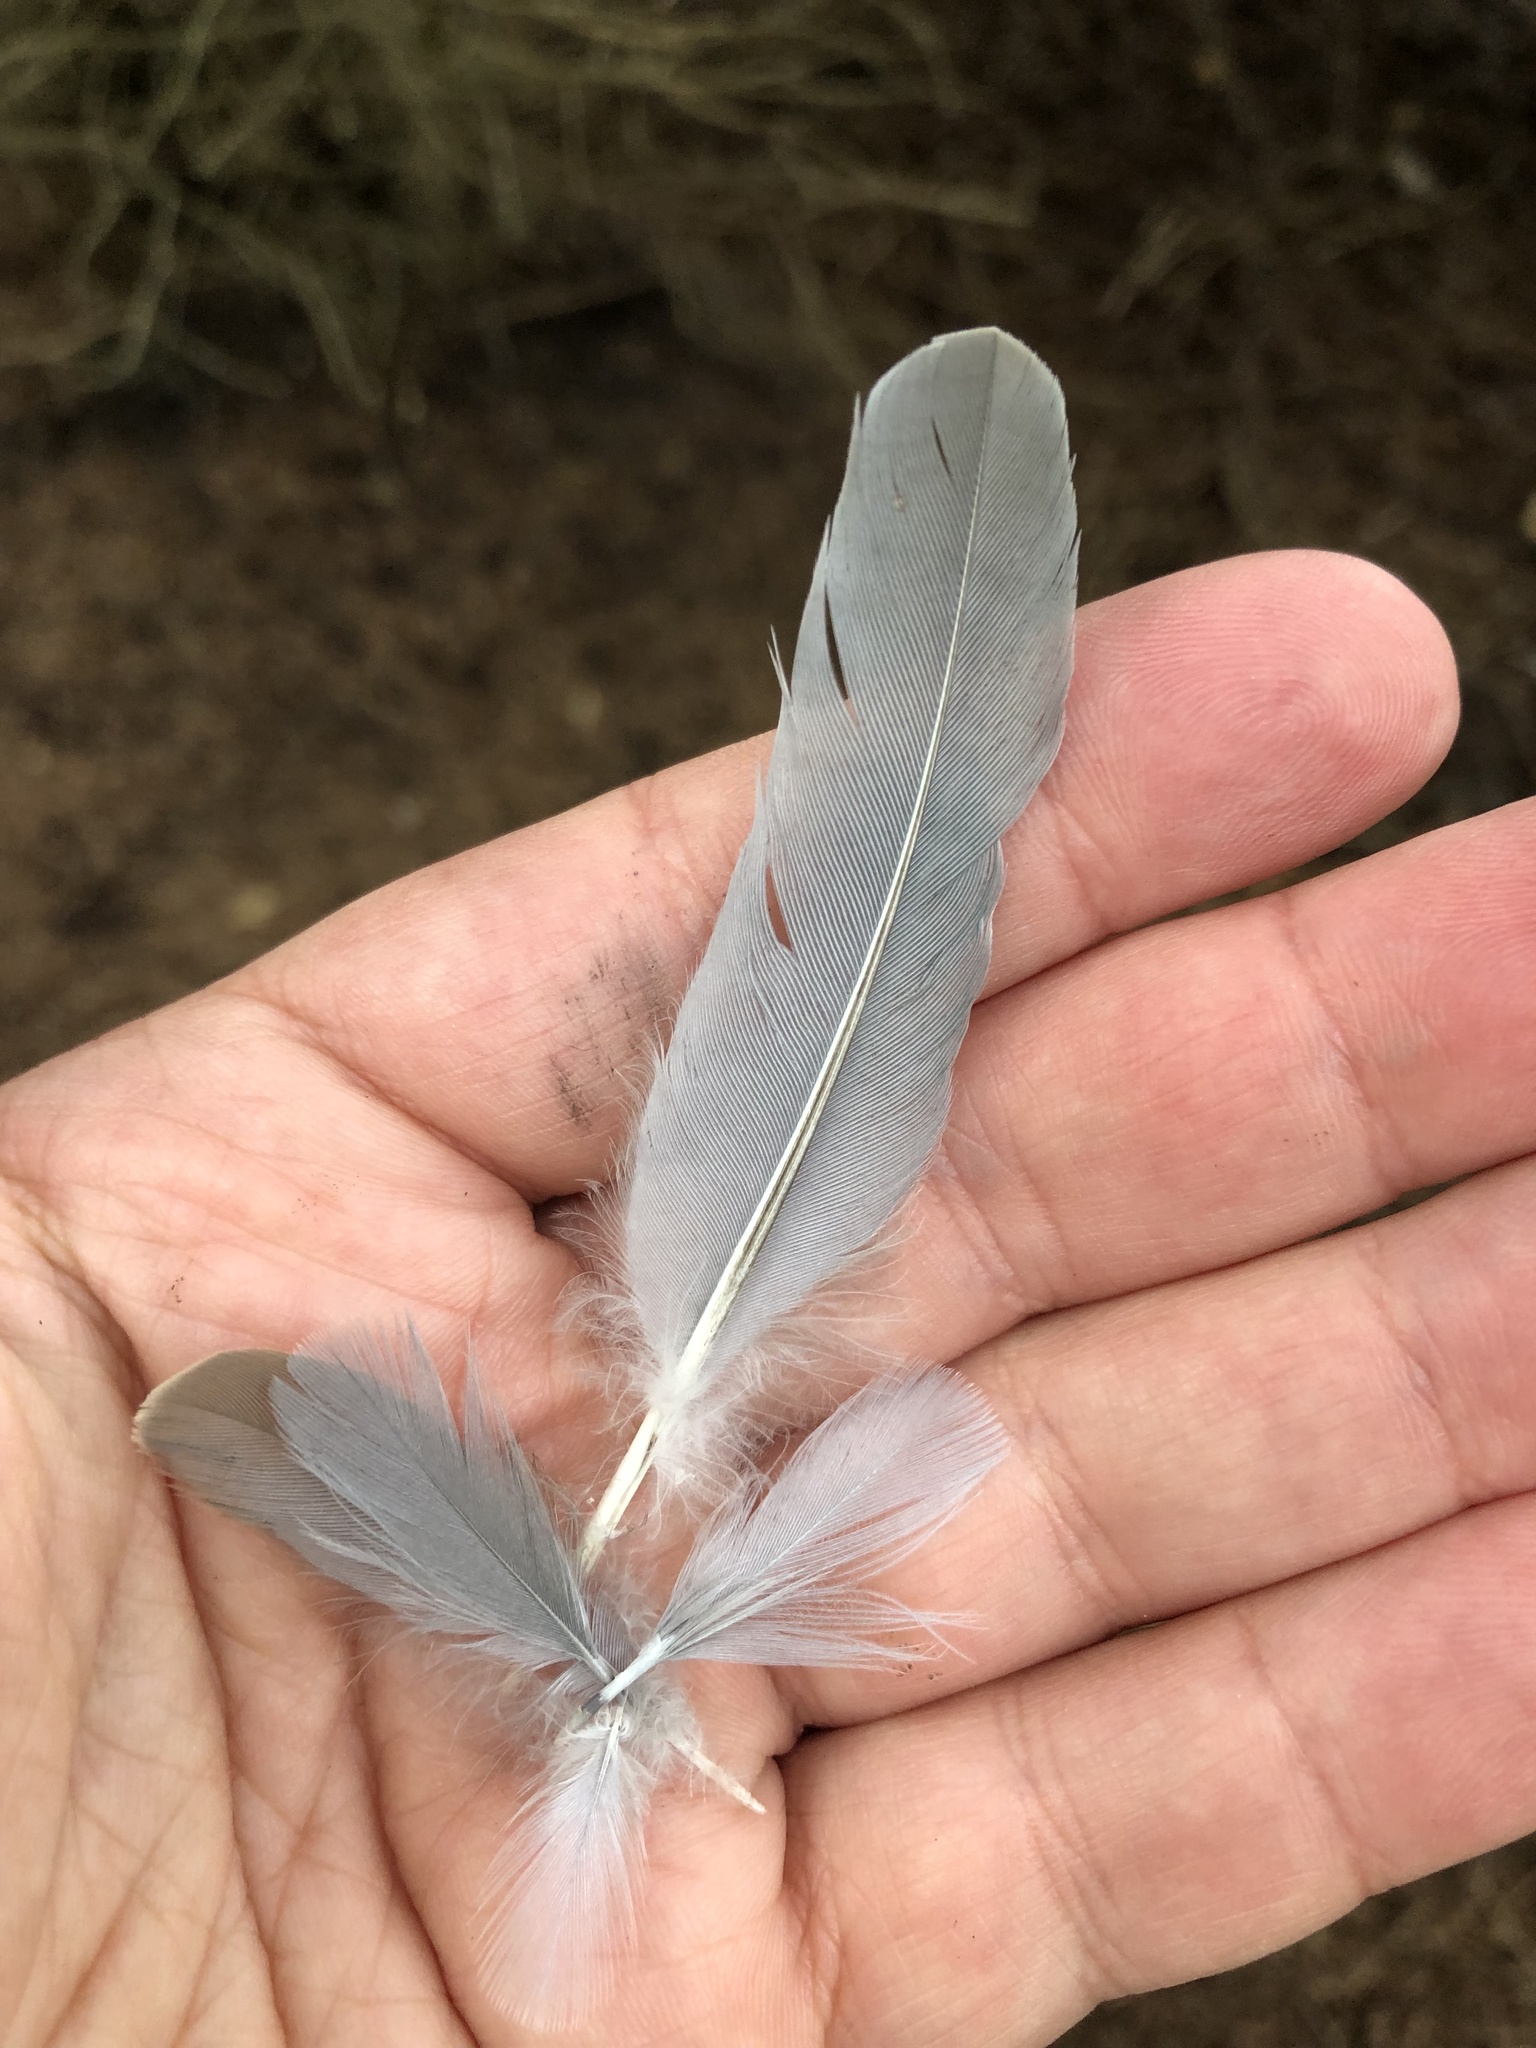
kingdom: Animalia
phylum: Chordata
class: Aves
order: Columbiformes
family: Columbidae
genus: Zenaida
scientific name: Zenaida macroura
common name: Mourning dove
